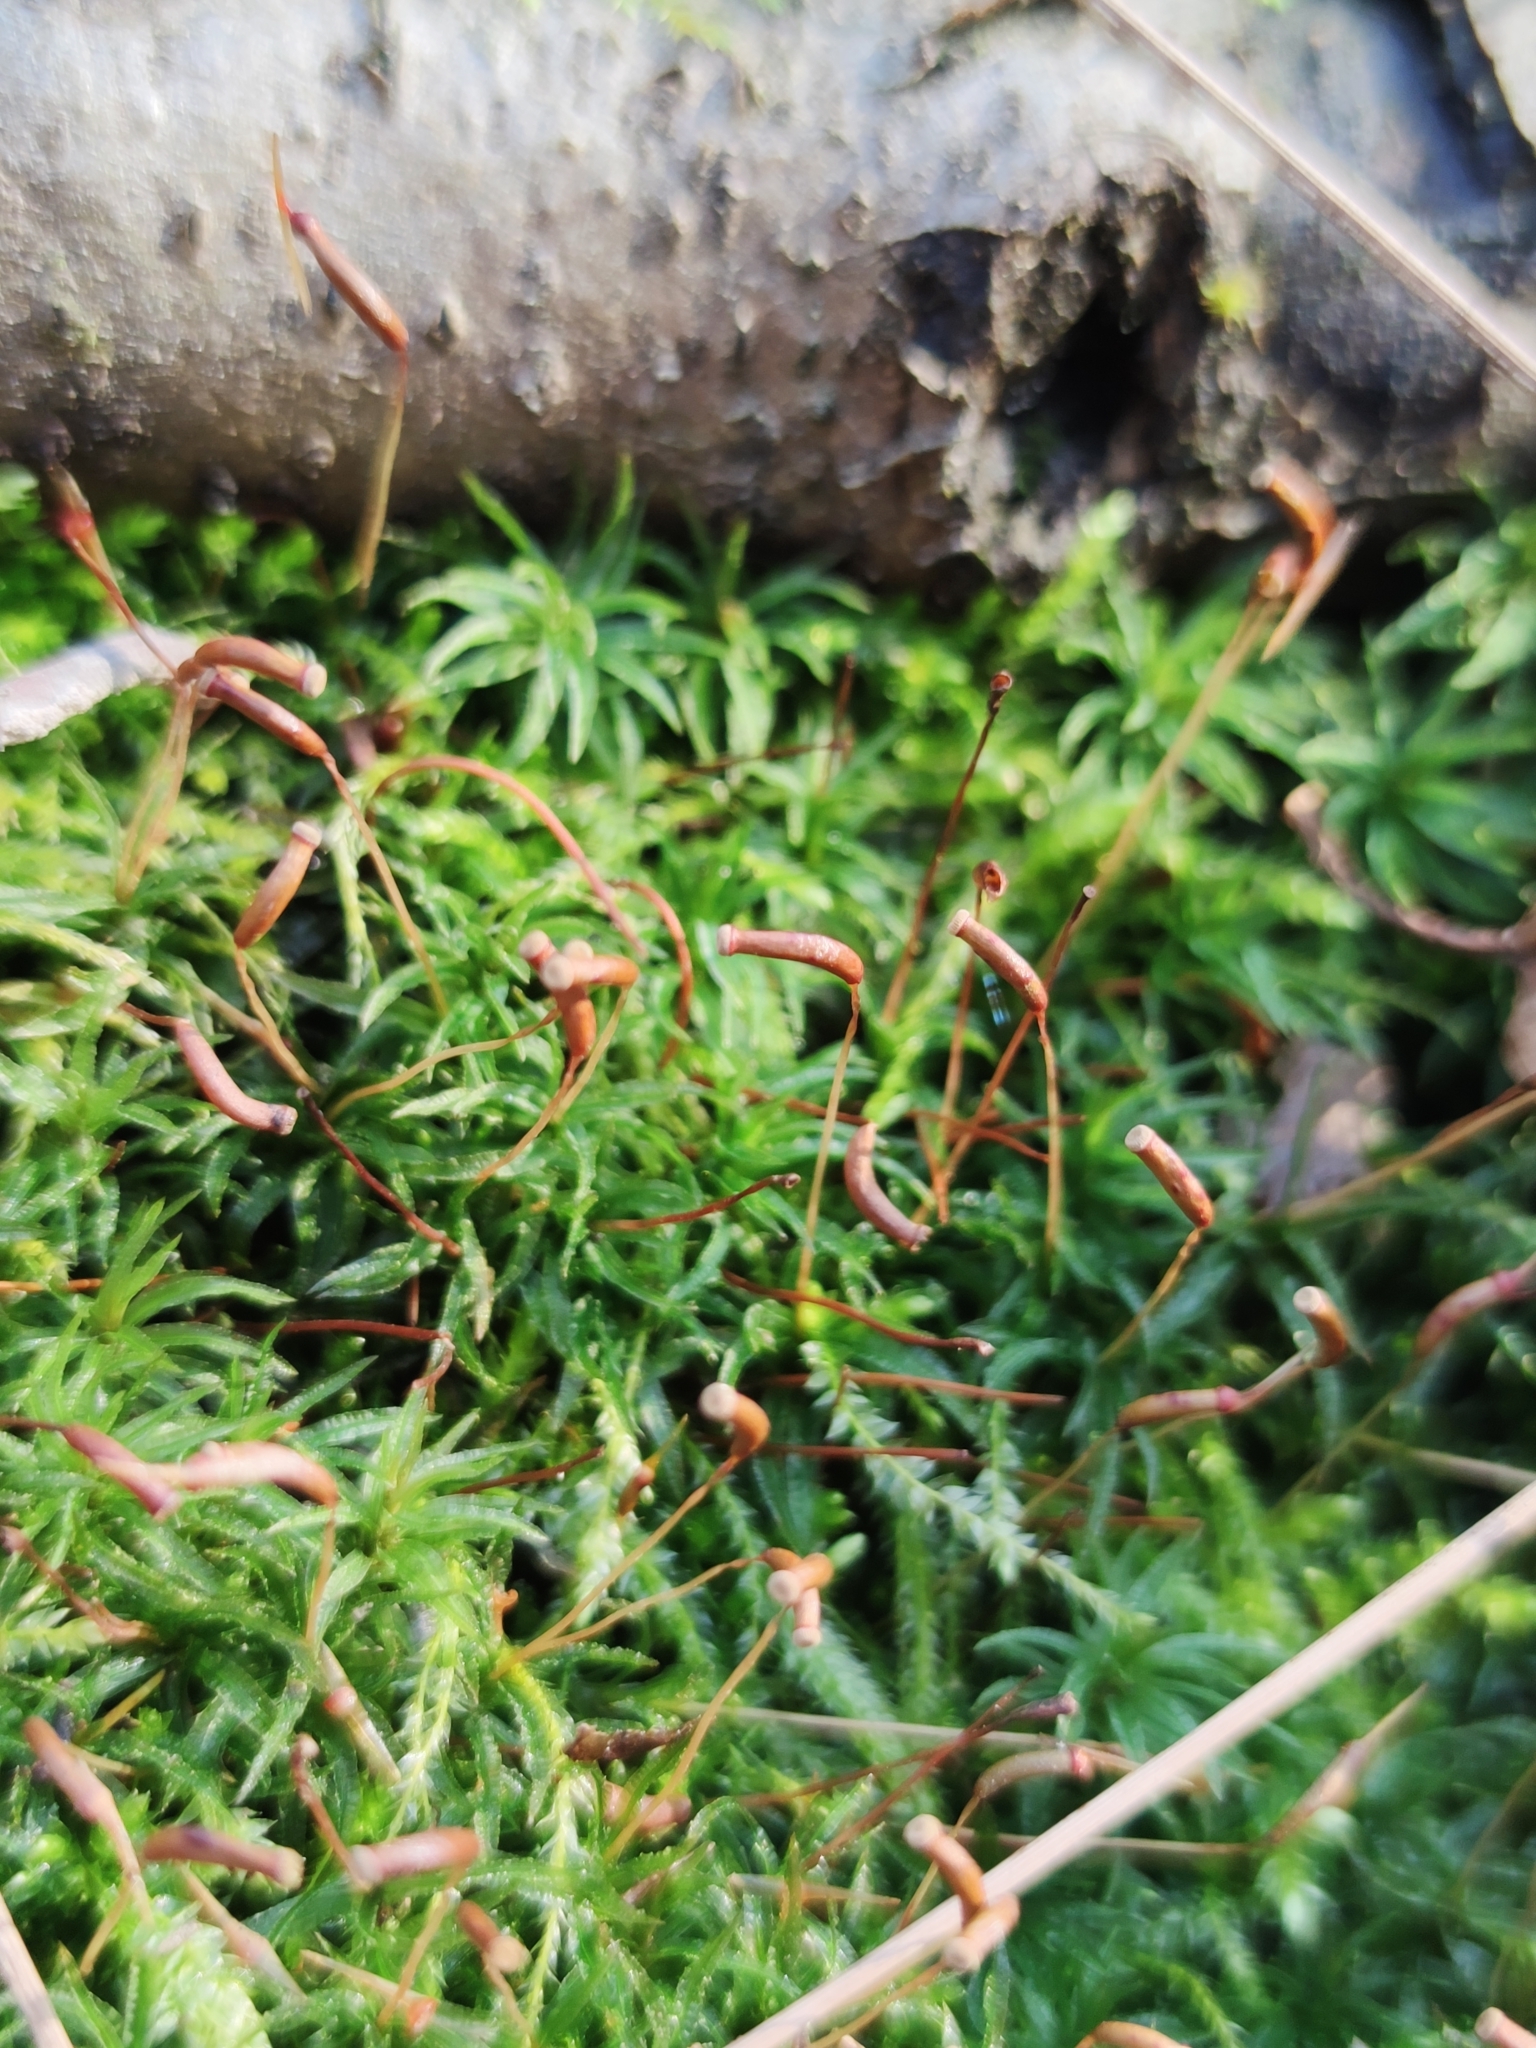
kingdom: Plantae
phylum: Bryophyta
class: Polytrichopsida
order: Polytrichales
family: Polytrichaceae
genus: Atrichum
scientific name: Atrichum undulatum
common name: Common smoothcap
